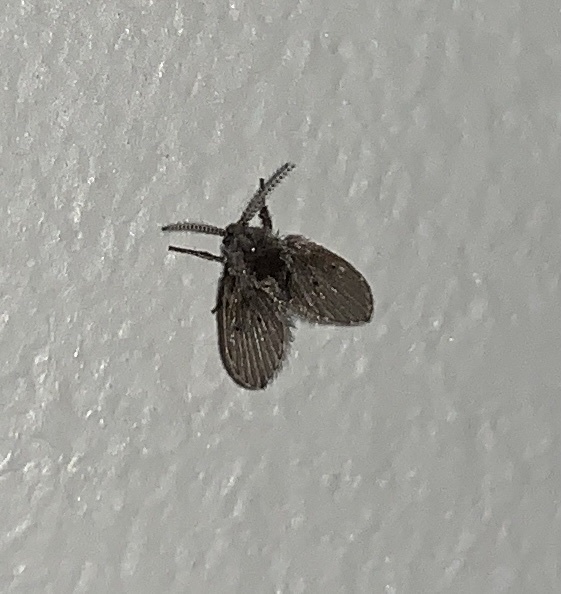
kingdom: Animalia
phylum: Arthropoda
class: Insecta
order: Diptera
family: Psychodidae
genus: Clogmia
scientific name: Clogmia albipunctatus
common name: White-spotted moth fly
